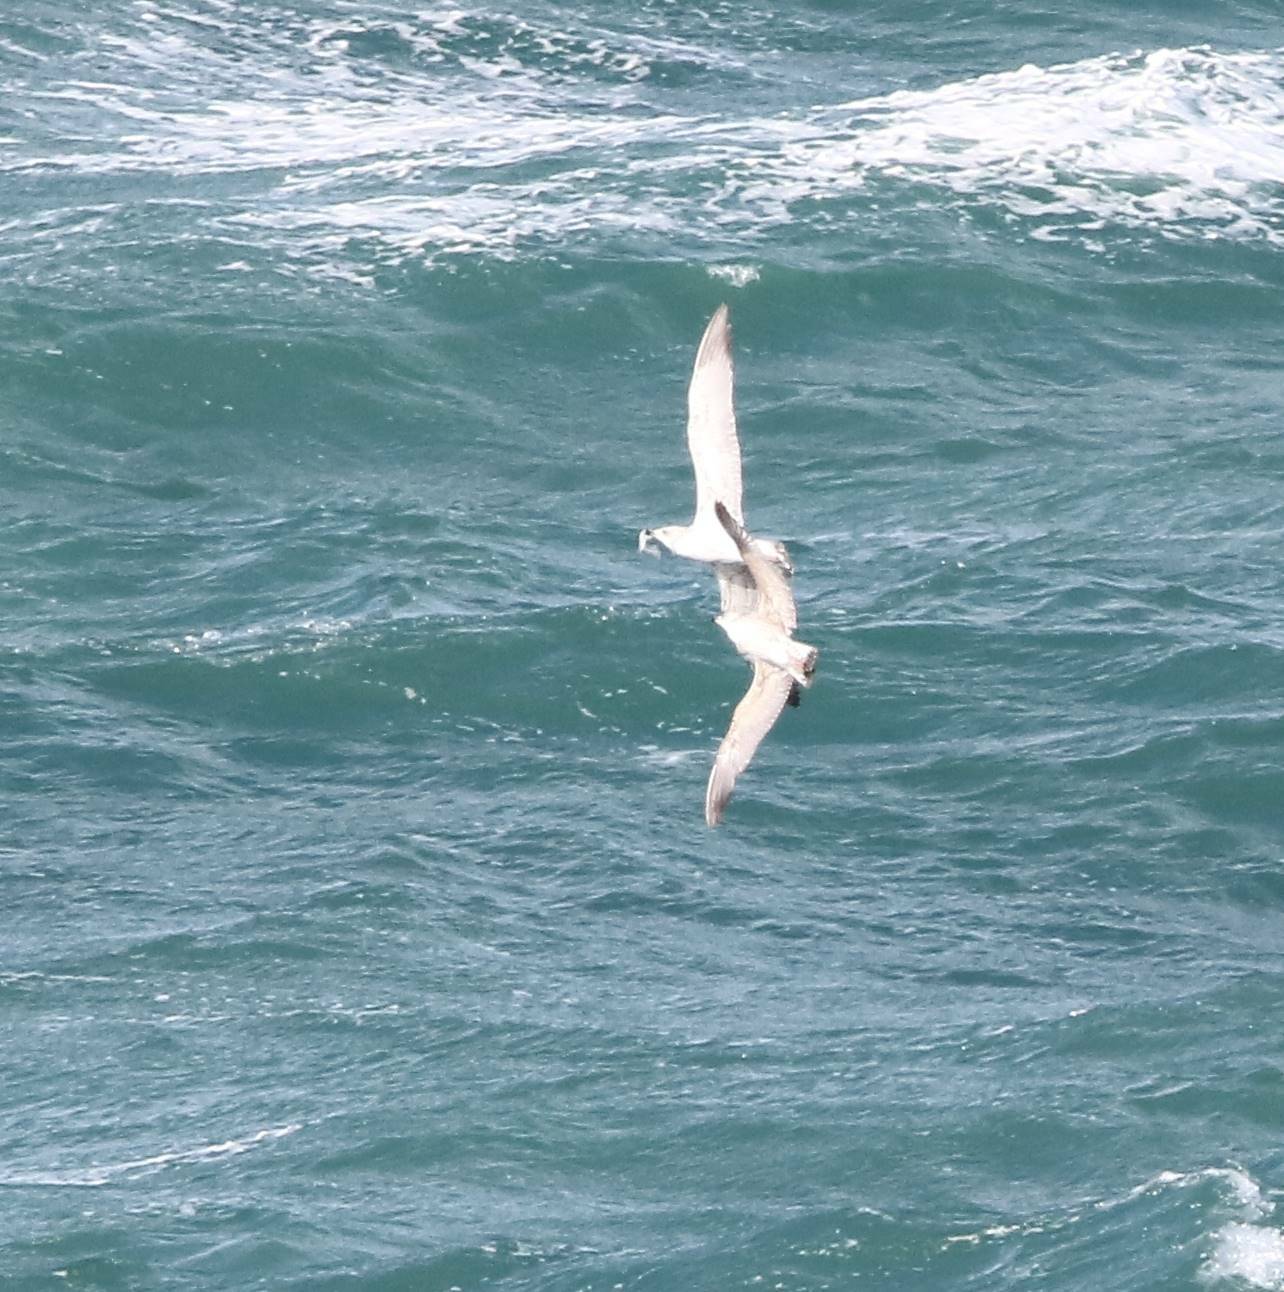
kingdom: Animalia
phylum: Chordata
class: Aves
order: Charadriiformes
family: Laridae
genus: Ichthyaetus
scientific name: Ichthyaetus audouinii
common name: Audouin's gull
